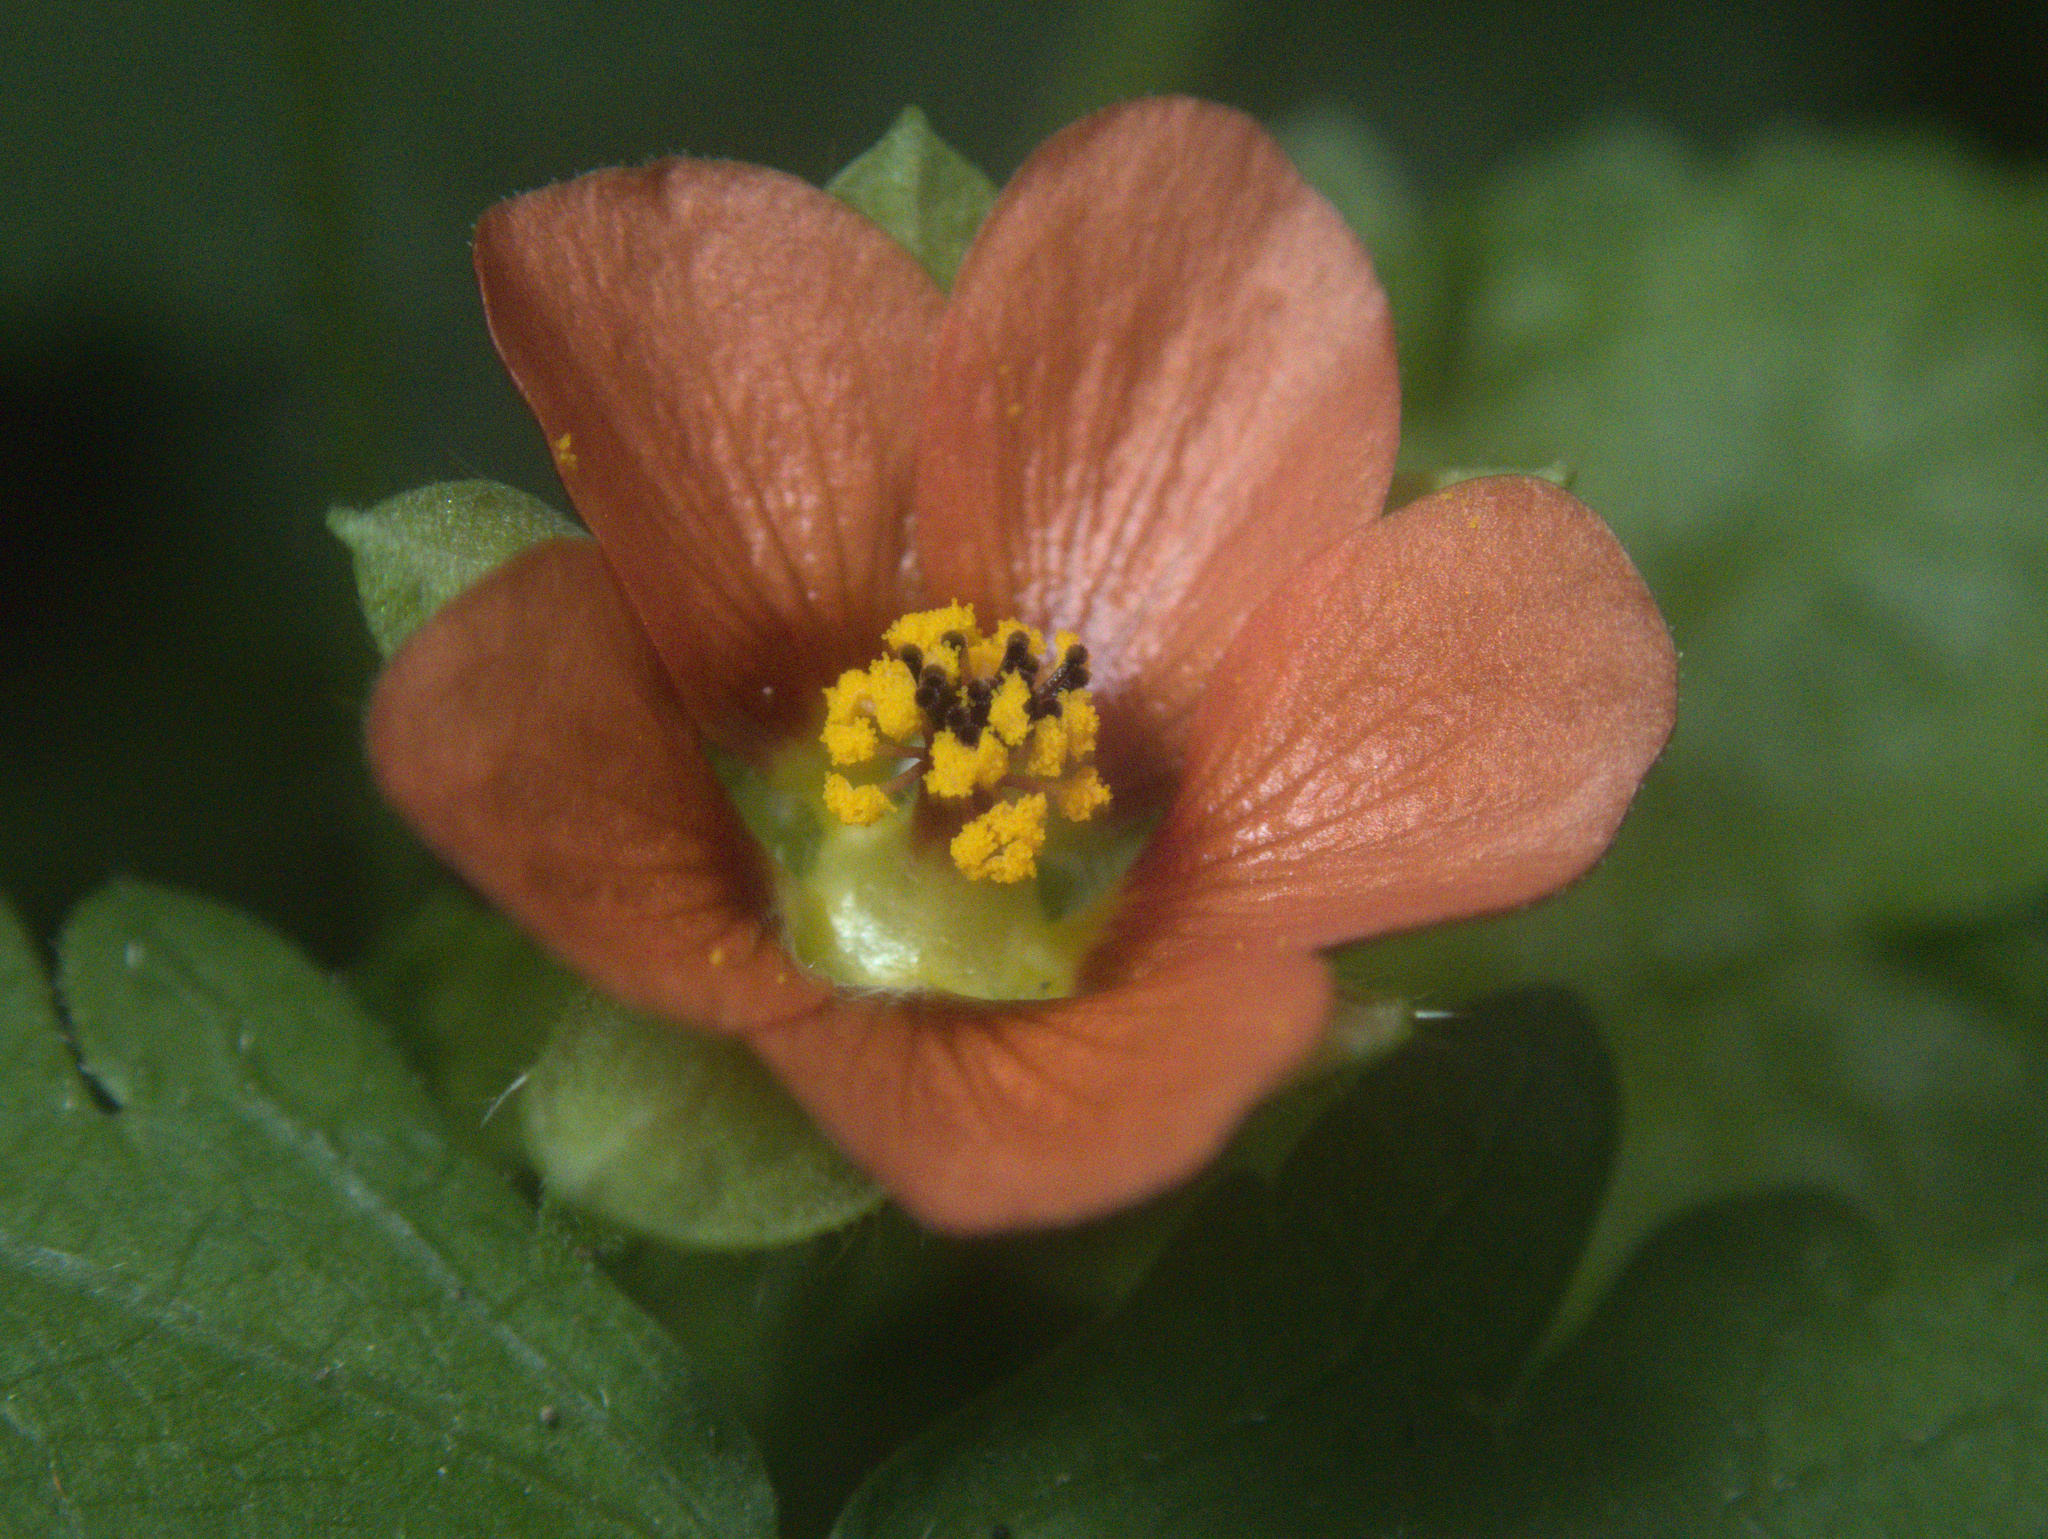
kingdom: Plantae
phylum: Tracheophyta
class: Magnoliopsida
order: Malvales
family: Malvaceae
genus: Modiola
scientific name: Modiola caroliniana
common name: Carolina bristlemallow
